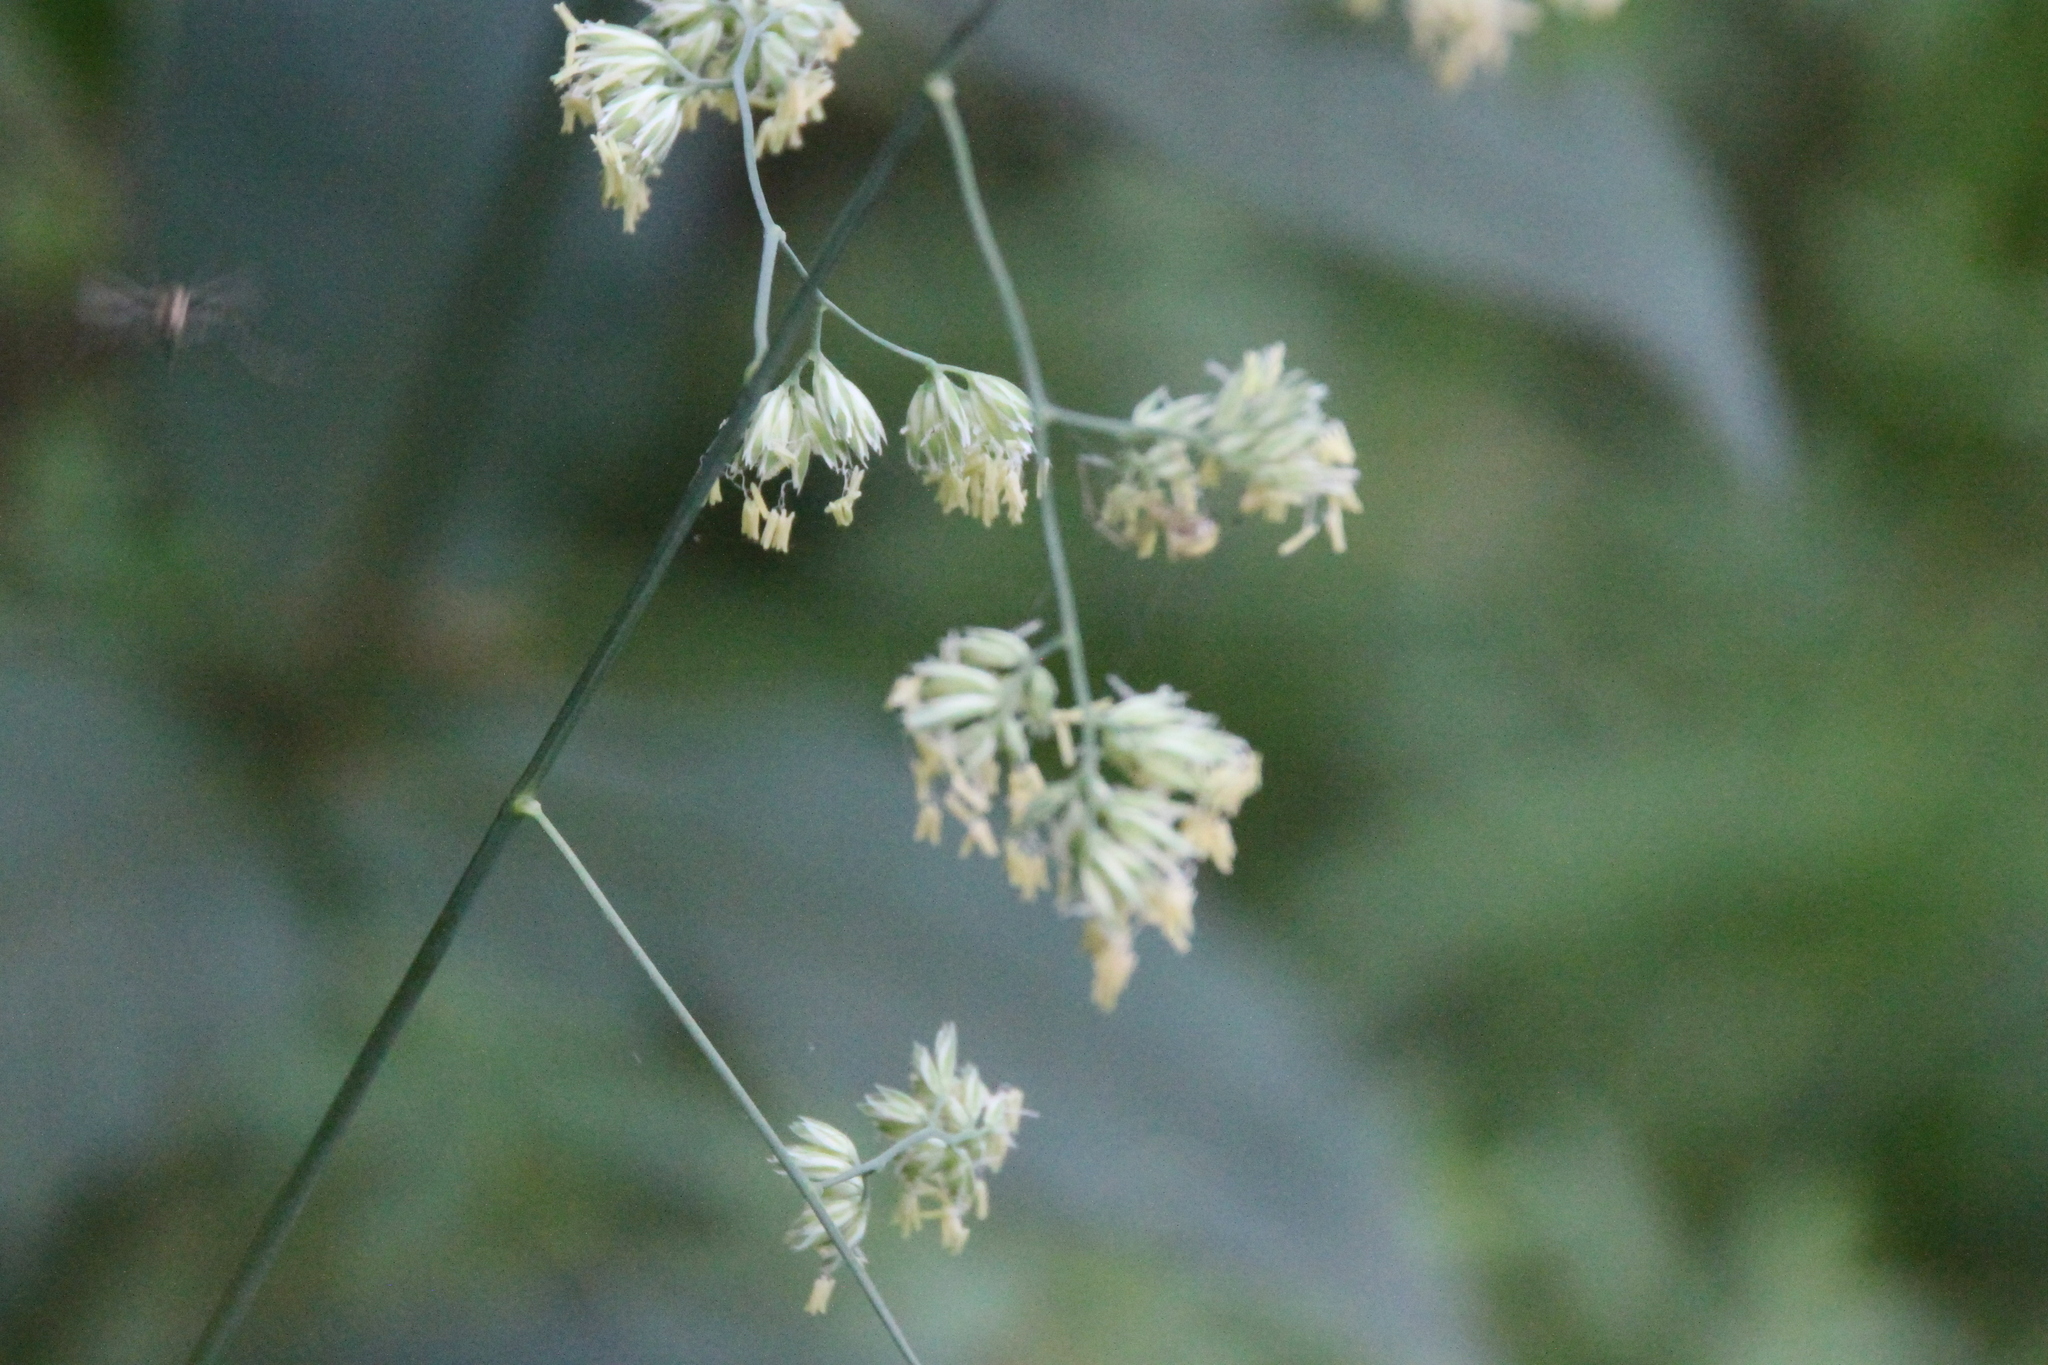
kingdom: Plantae
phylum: Tracheophyta
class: Liliopsida
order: Poales
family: Poaceae
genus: Dactylis
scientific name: Dactylis glomerata
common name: Orchardgrass
